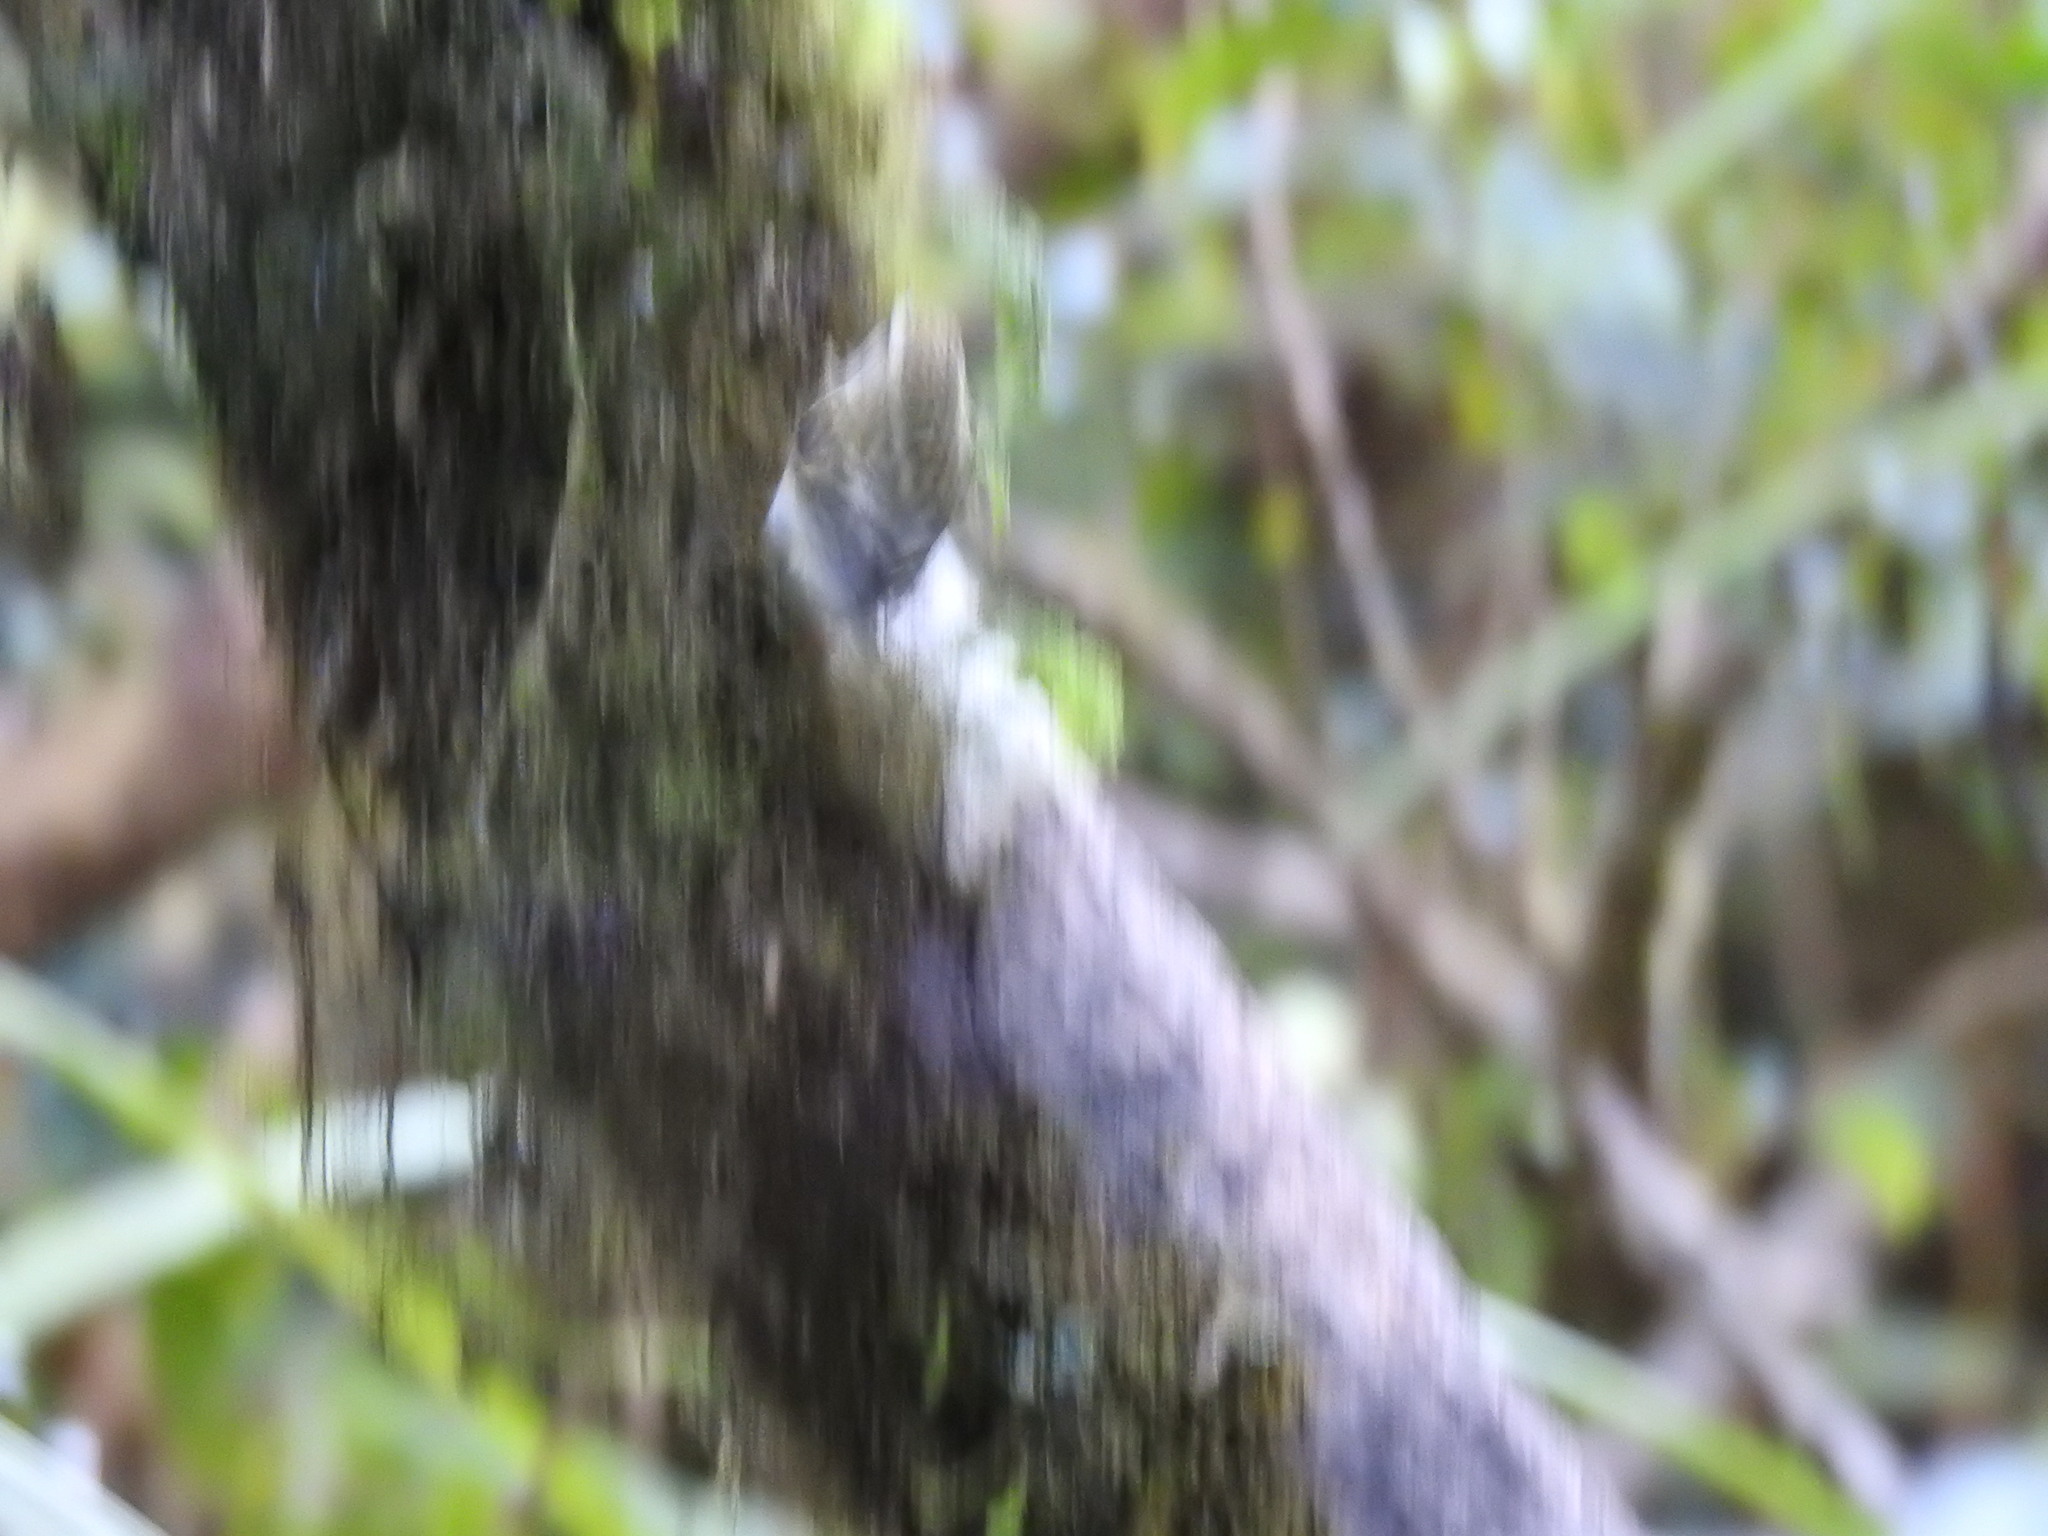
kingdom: Animalia
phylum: Chordata
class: Aves
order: Passeriformes
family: Acanthisittidae
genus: Acanthisitta
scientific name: Acanthisitta chloris
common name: Rifleman
